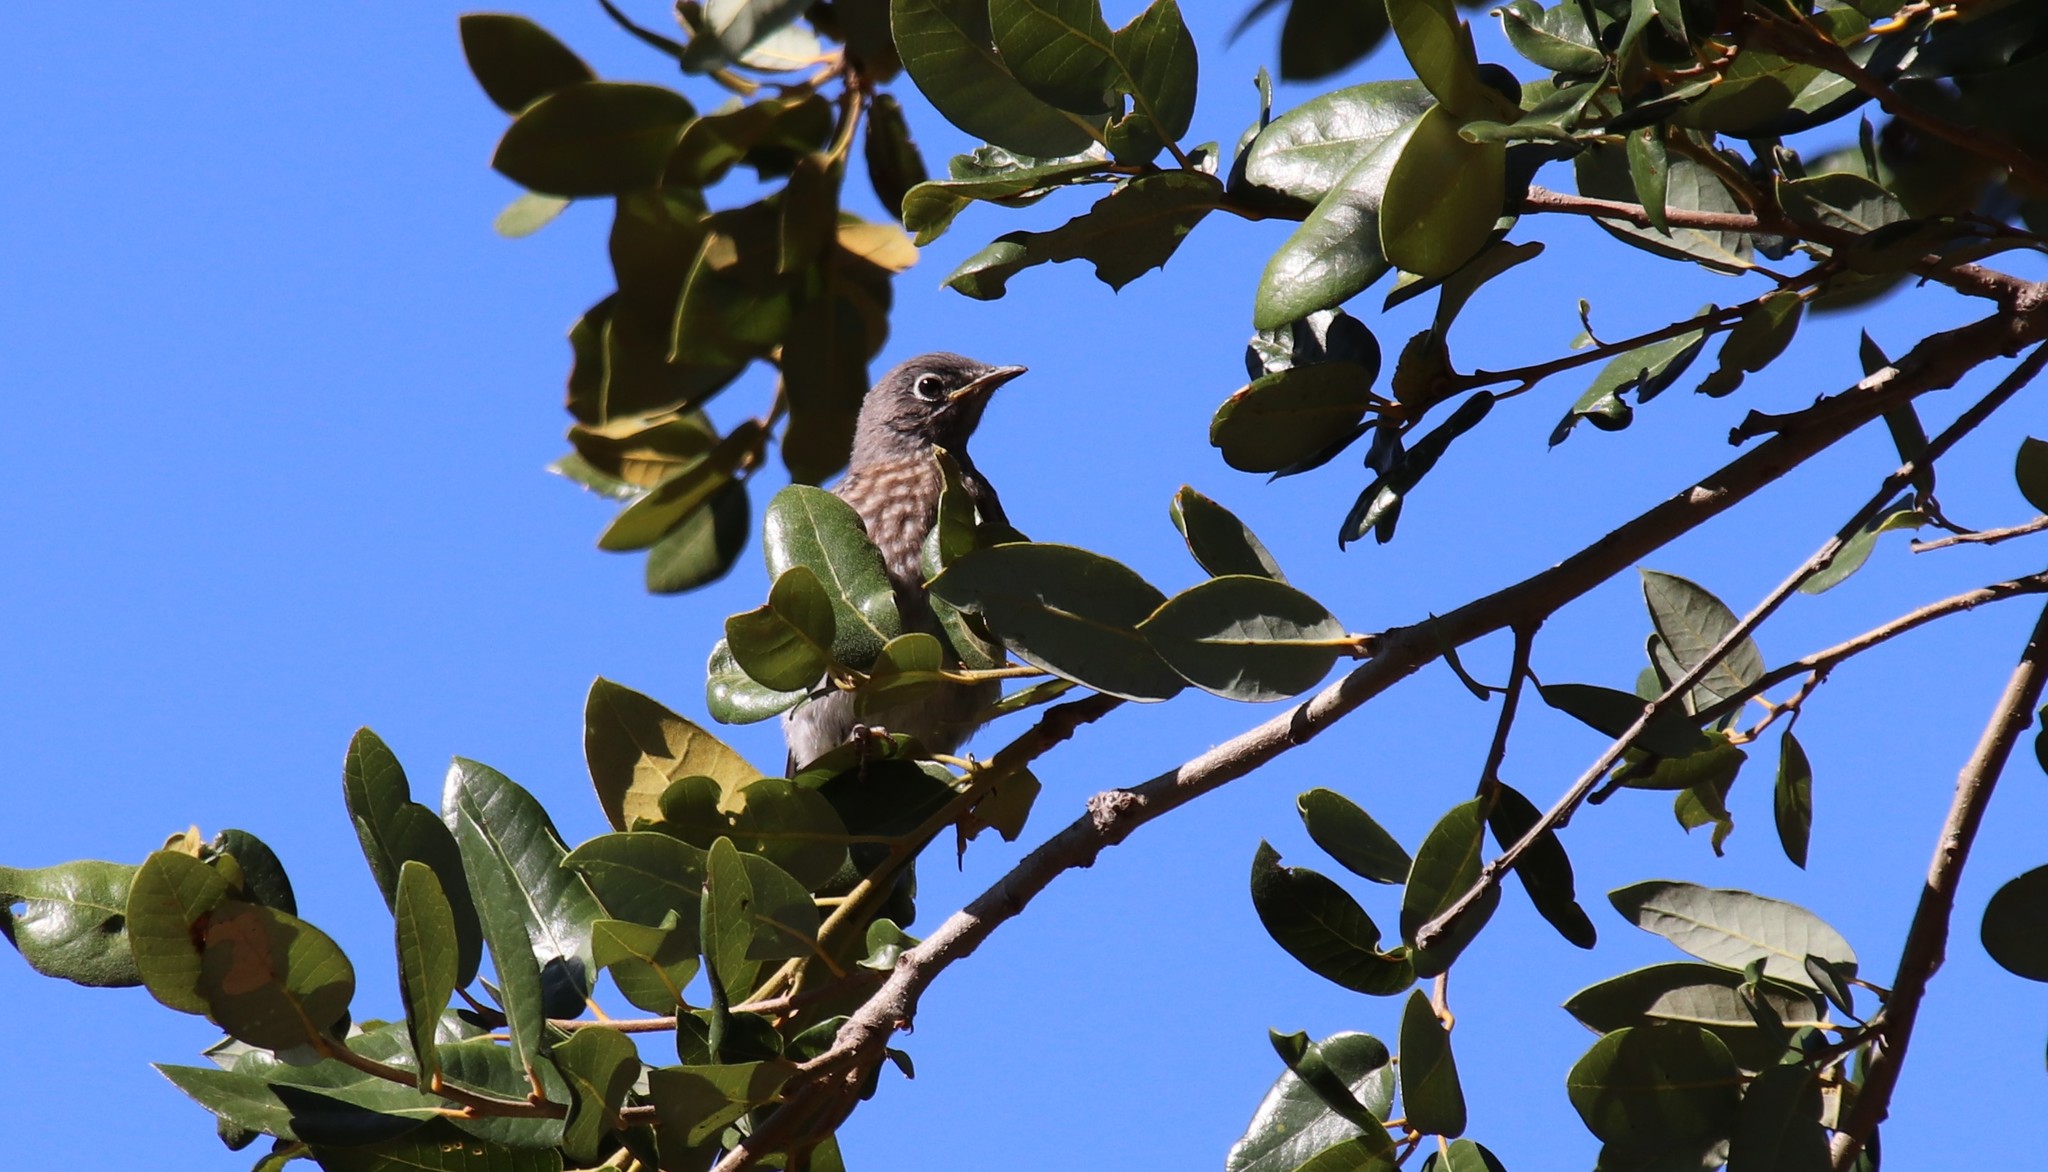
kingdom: Animalia
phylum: Chordata
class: Aves
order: Passeriformes
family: Turdidae
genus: Sialia
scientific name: Sialia mexicana
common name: Western bluebird
